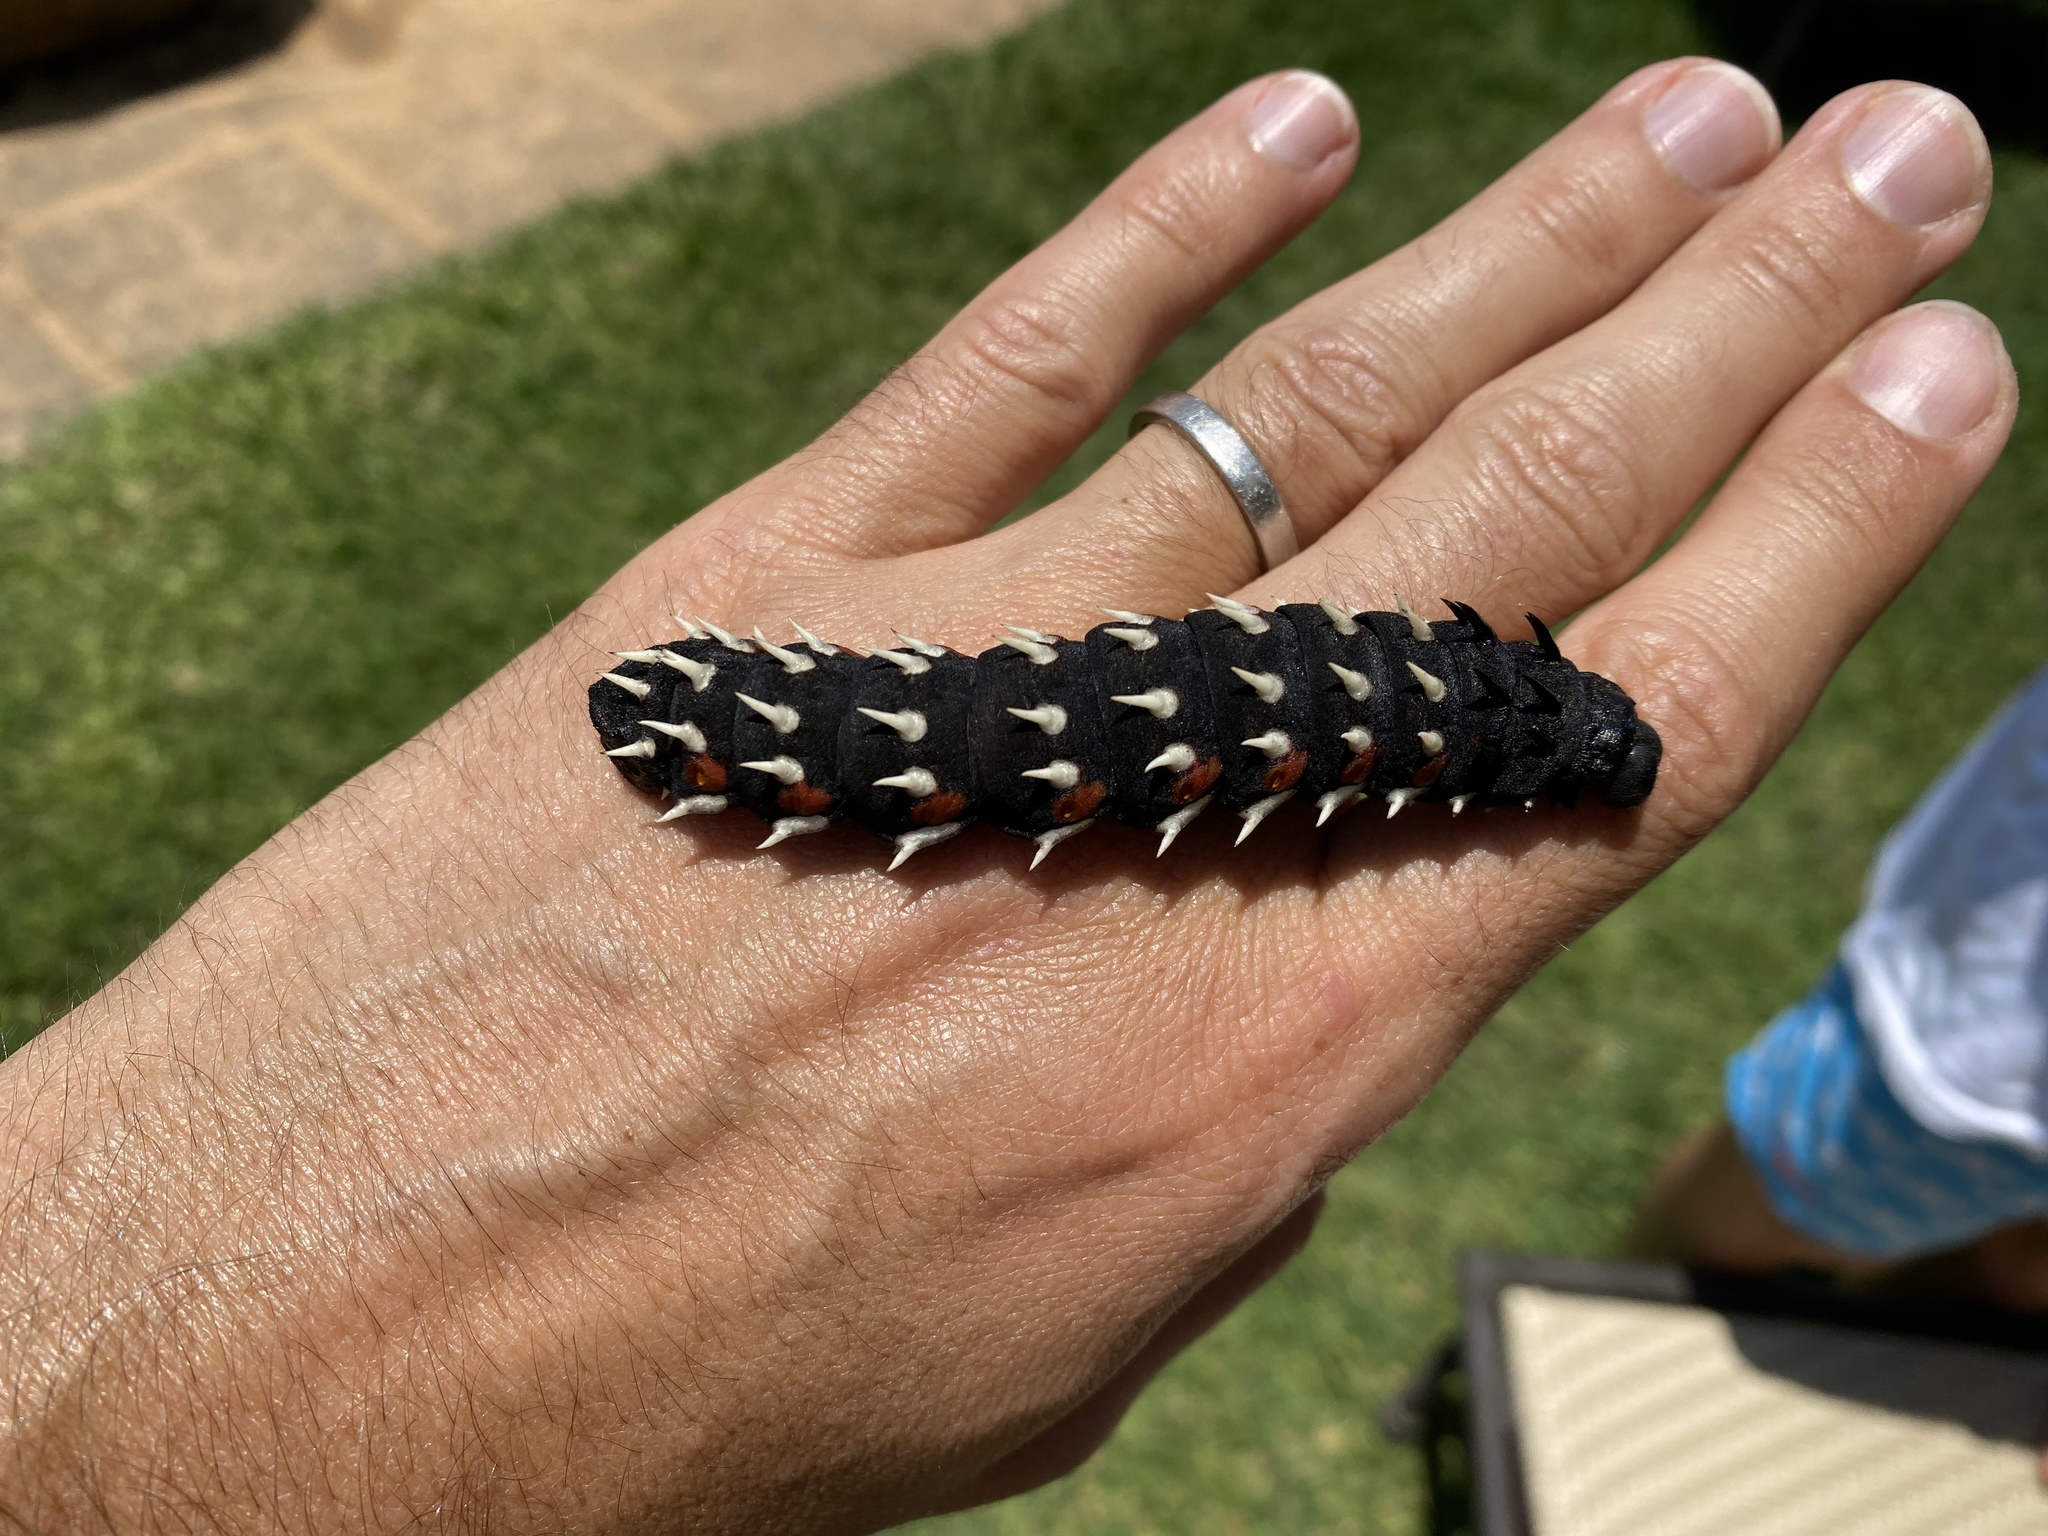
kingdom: Animalia
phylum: Arthropoda
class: Insecta
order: Lepidoptera
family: Saturniidae
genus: Bunaea
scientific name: Bunaea alcinoe
